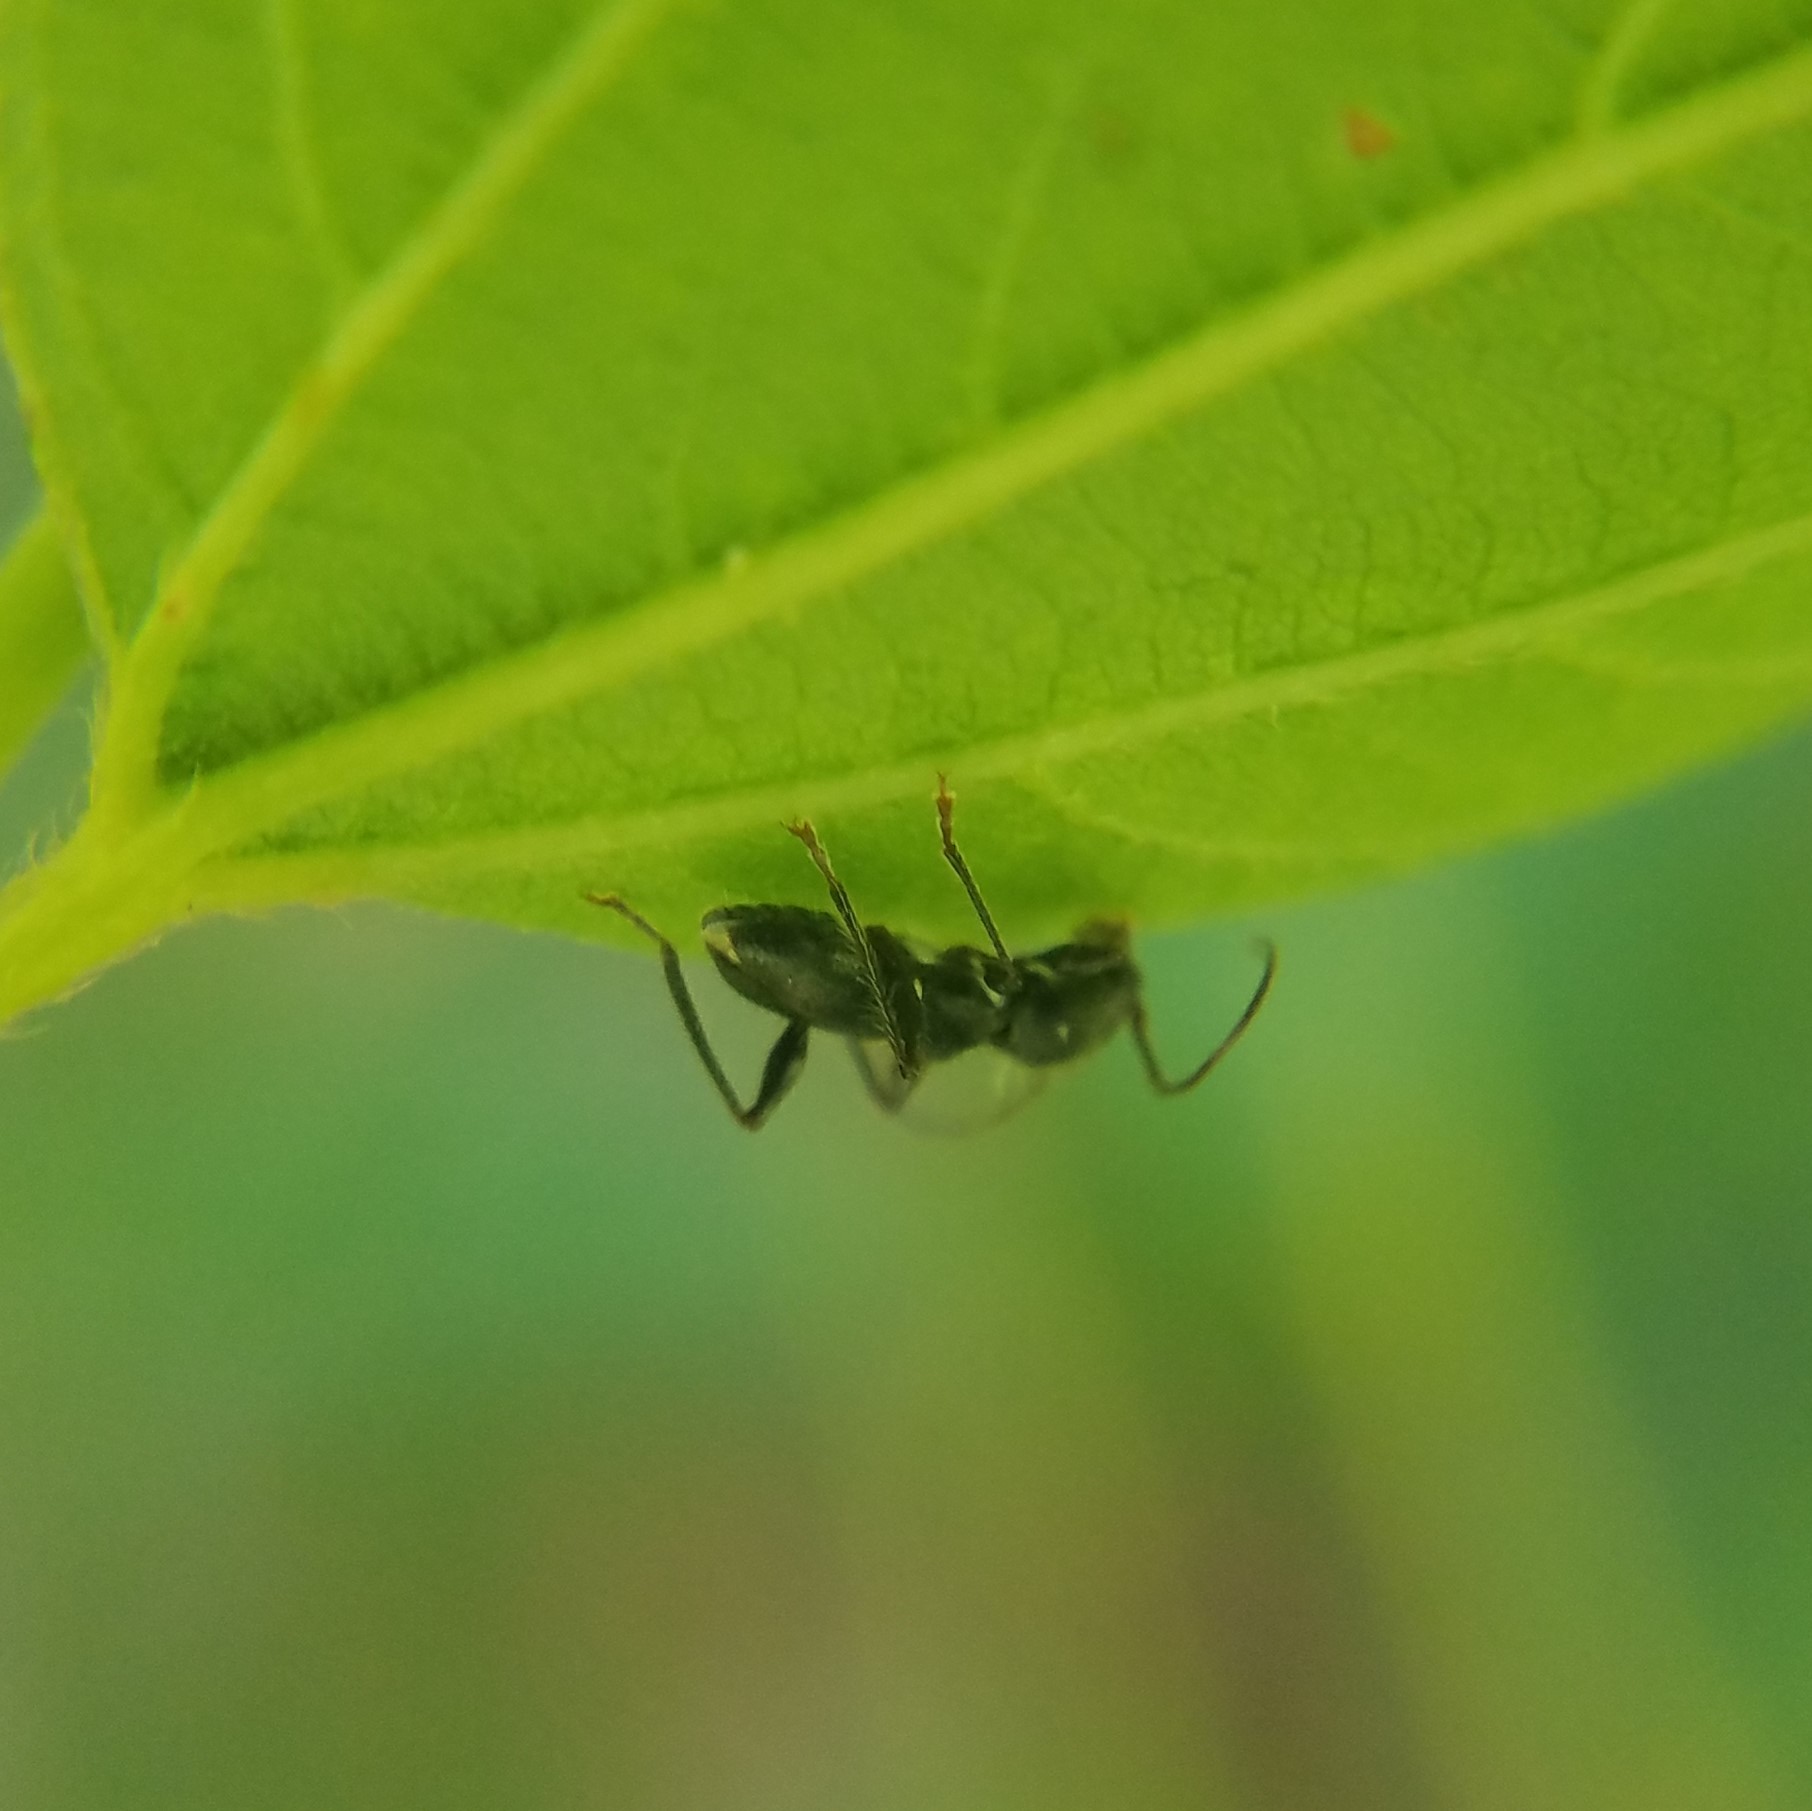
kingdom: Animalia
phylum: Arthropoda
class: Insecta
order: Coleoptera
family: Cerambycidae
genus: Euderces
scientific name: Euderces picipes
